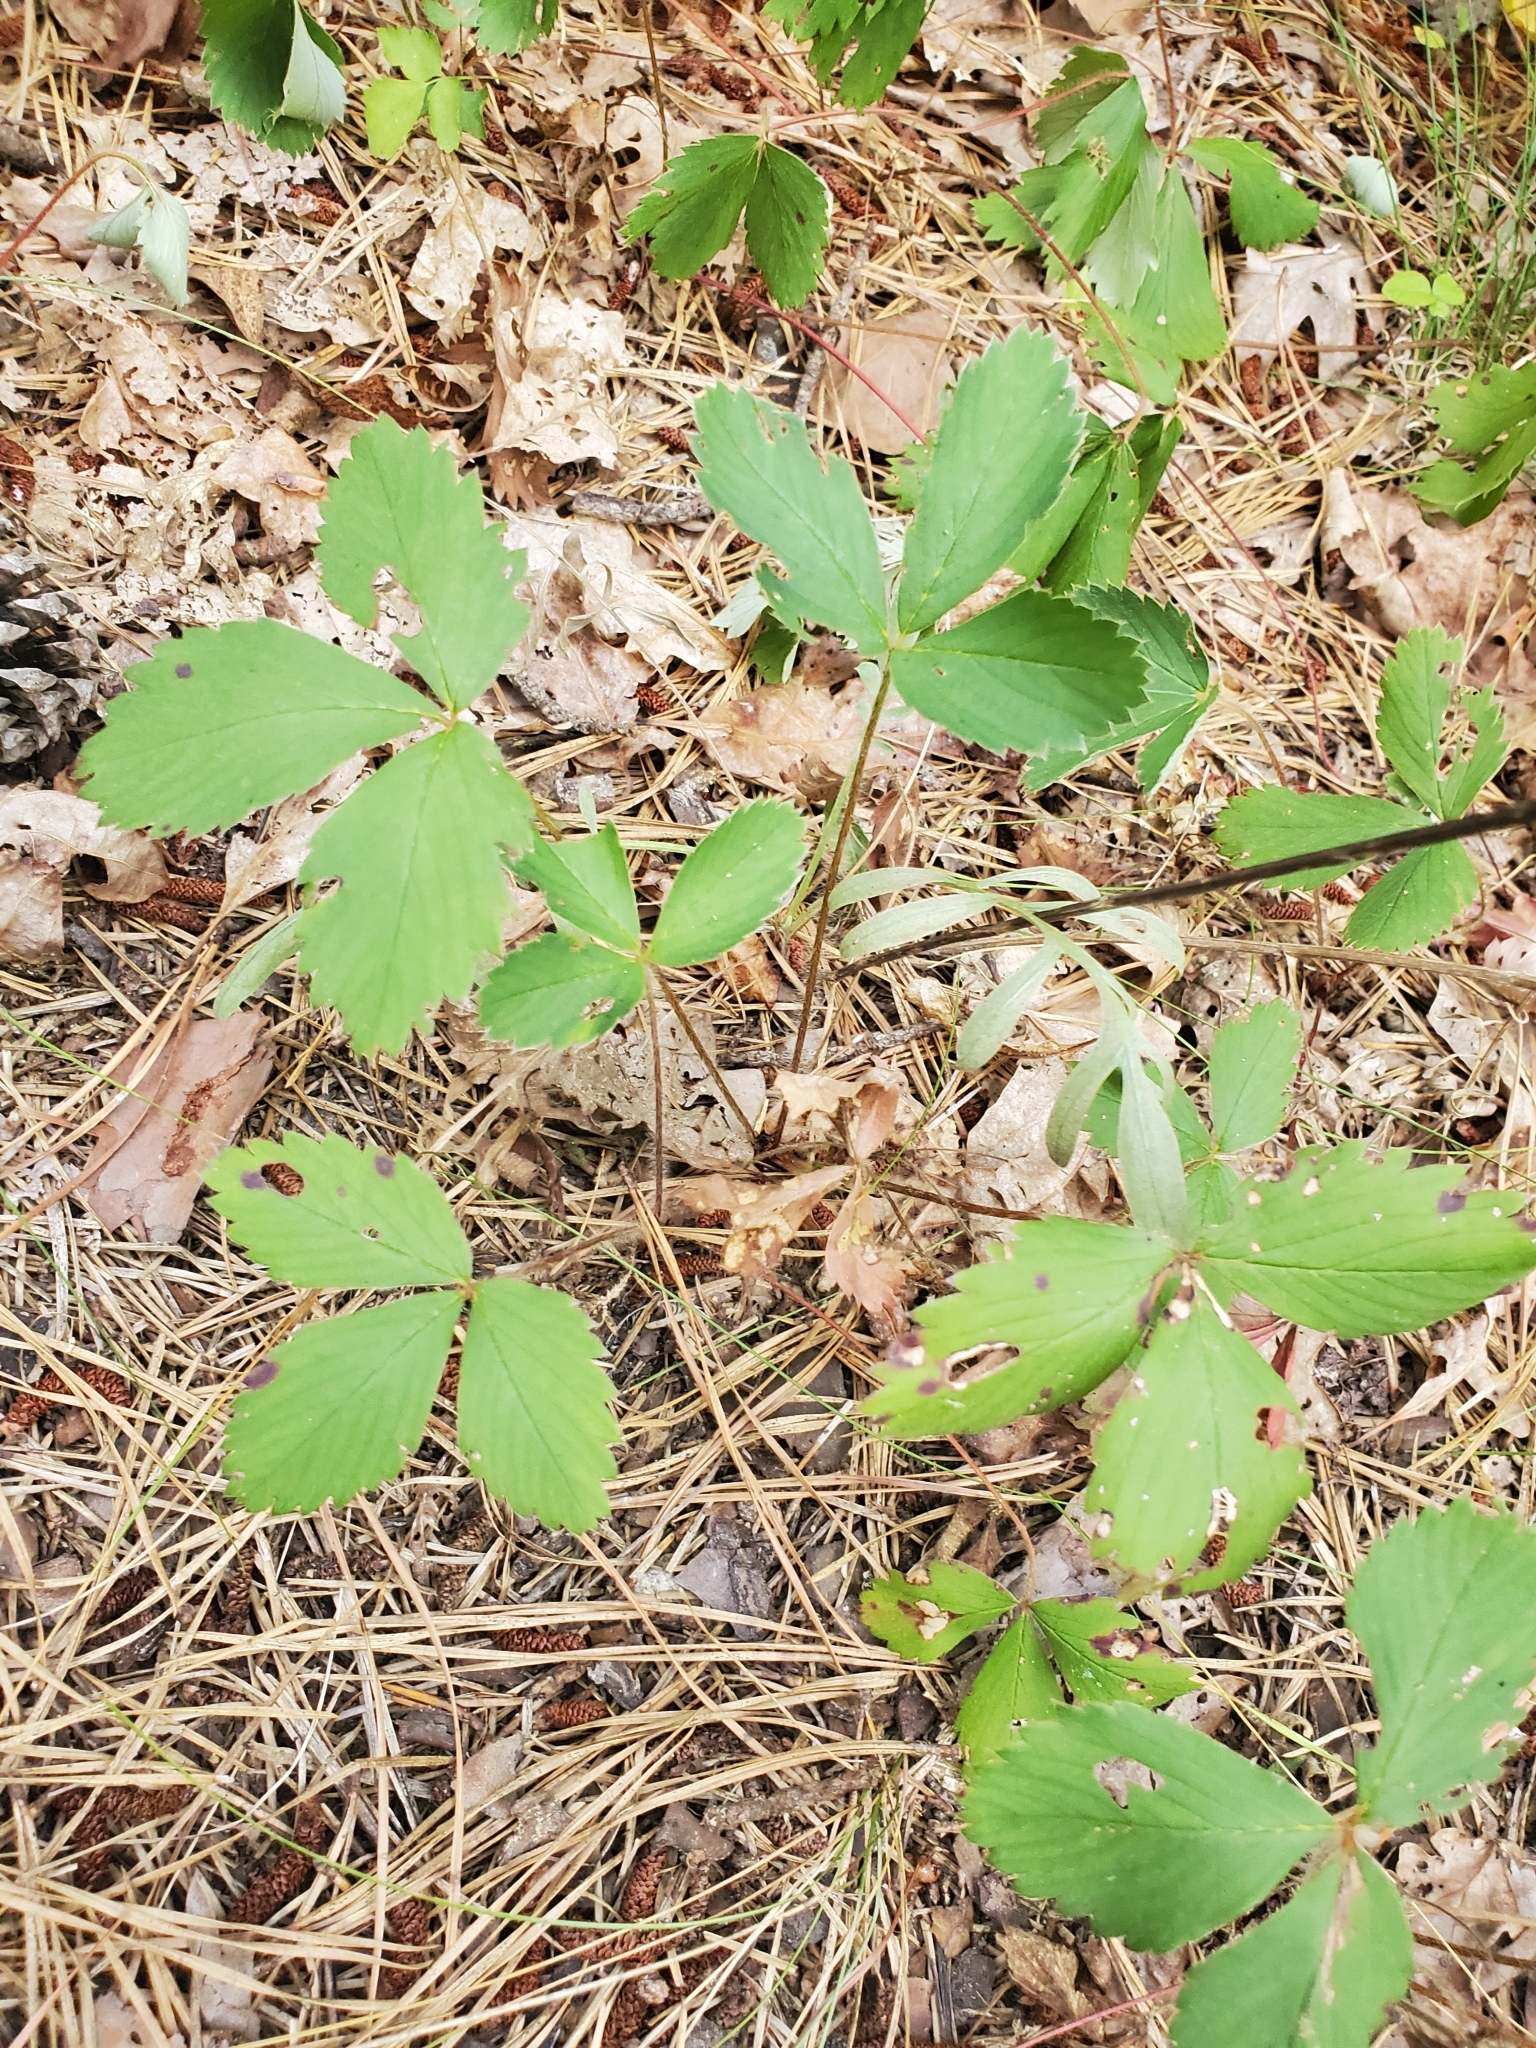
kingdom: Plantae
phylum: Tracheophyta
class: Magnoliopsida
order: Rosales
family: Rosaceae
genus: Fragaria
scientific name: Fragaria virginiana
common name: Thickleaved wild strawberry
